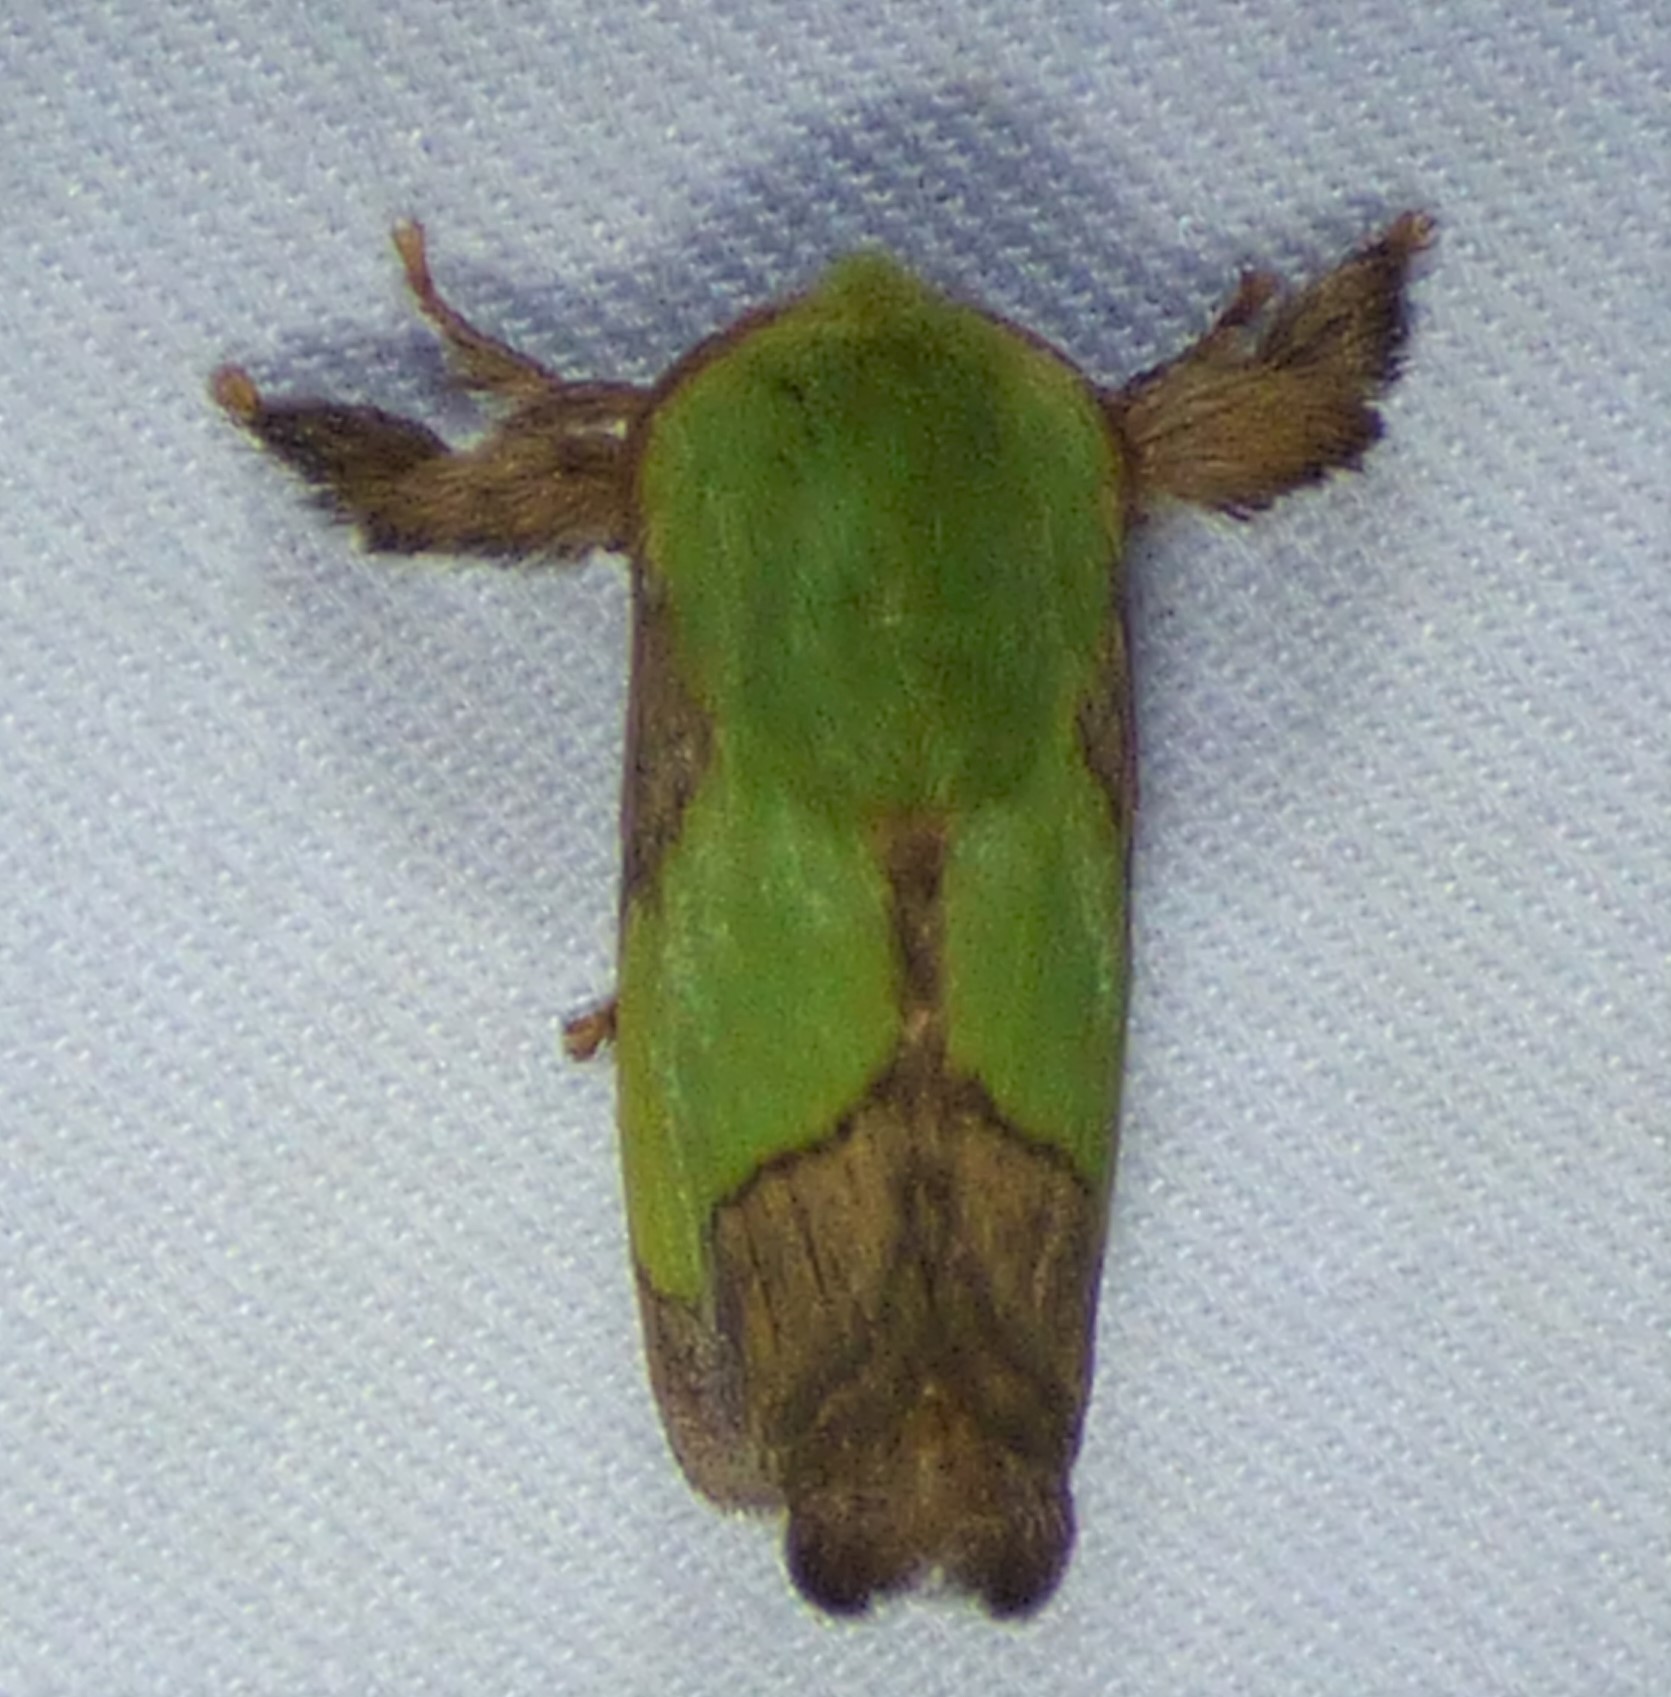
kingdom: Animalia
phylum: Arthropoda
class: Insecta
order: Lepidoptera
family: Limacodidae
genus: Parasa
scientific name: Parasa chloris
